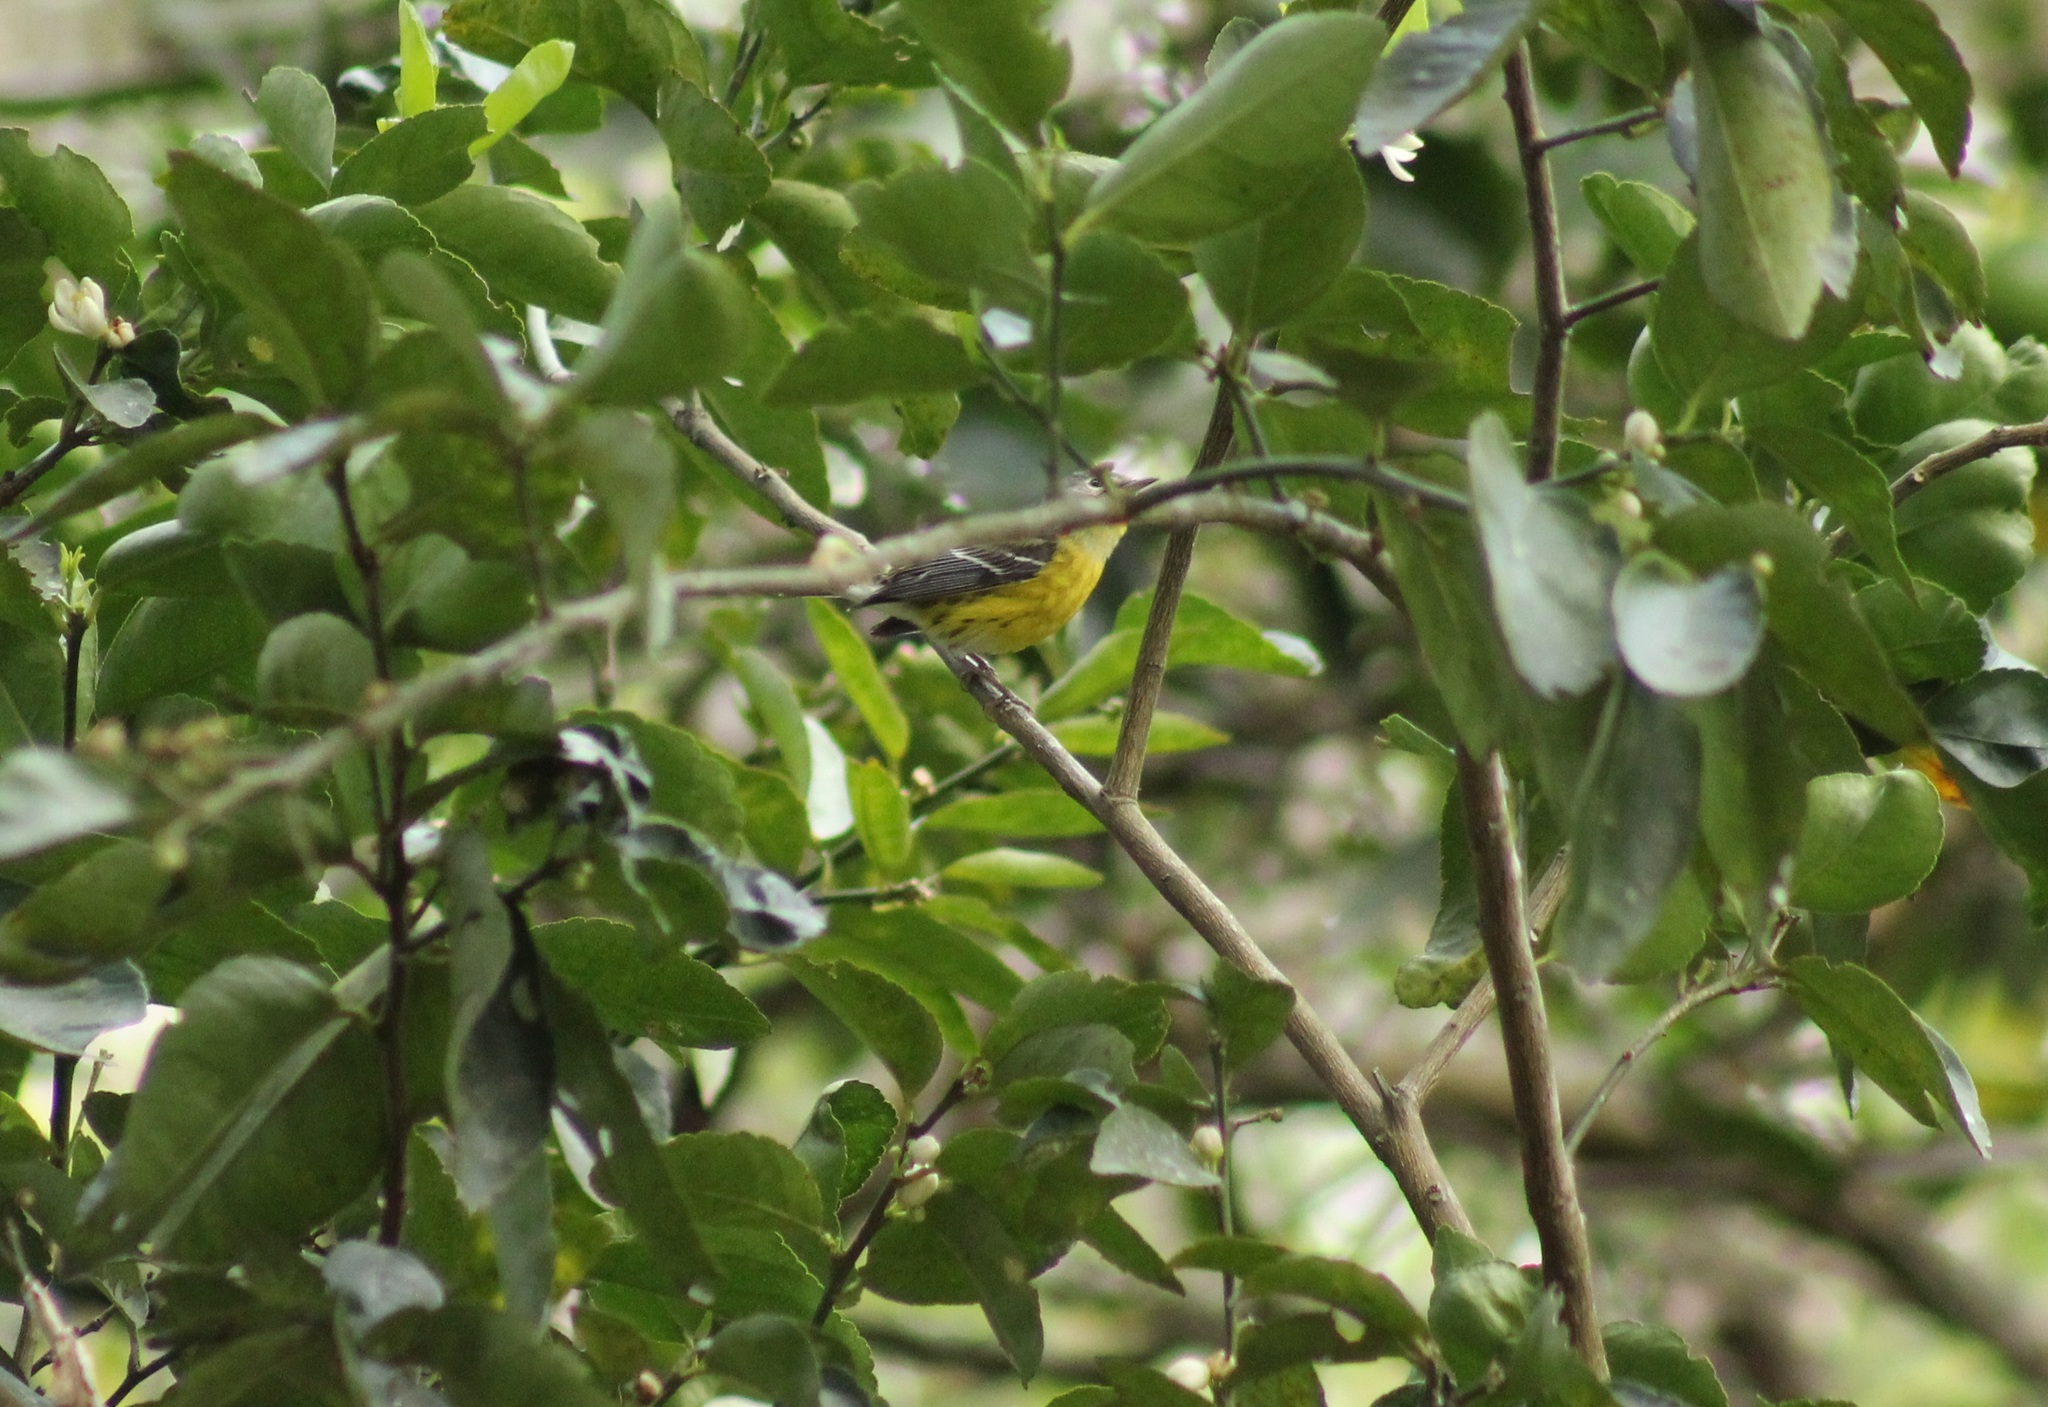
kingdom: Animalia
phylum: Chordata
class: Aves
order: Passeriformes
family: Parulidae
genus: Setophaga
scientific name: Setophaga magnolia
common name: Magnolia warbler
